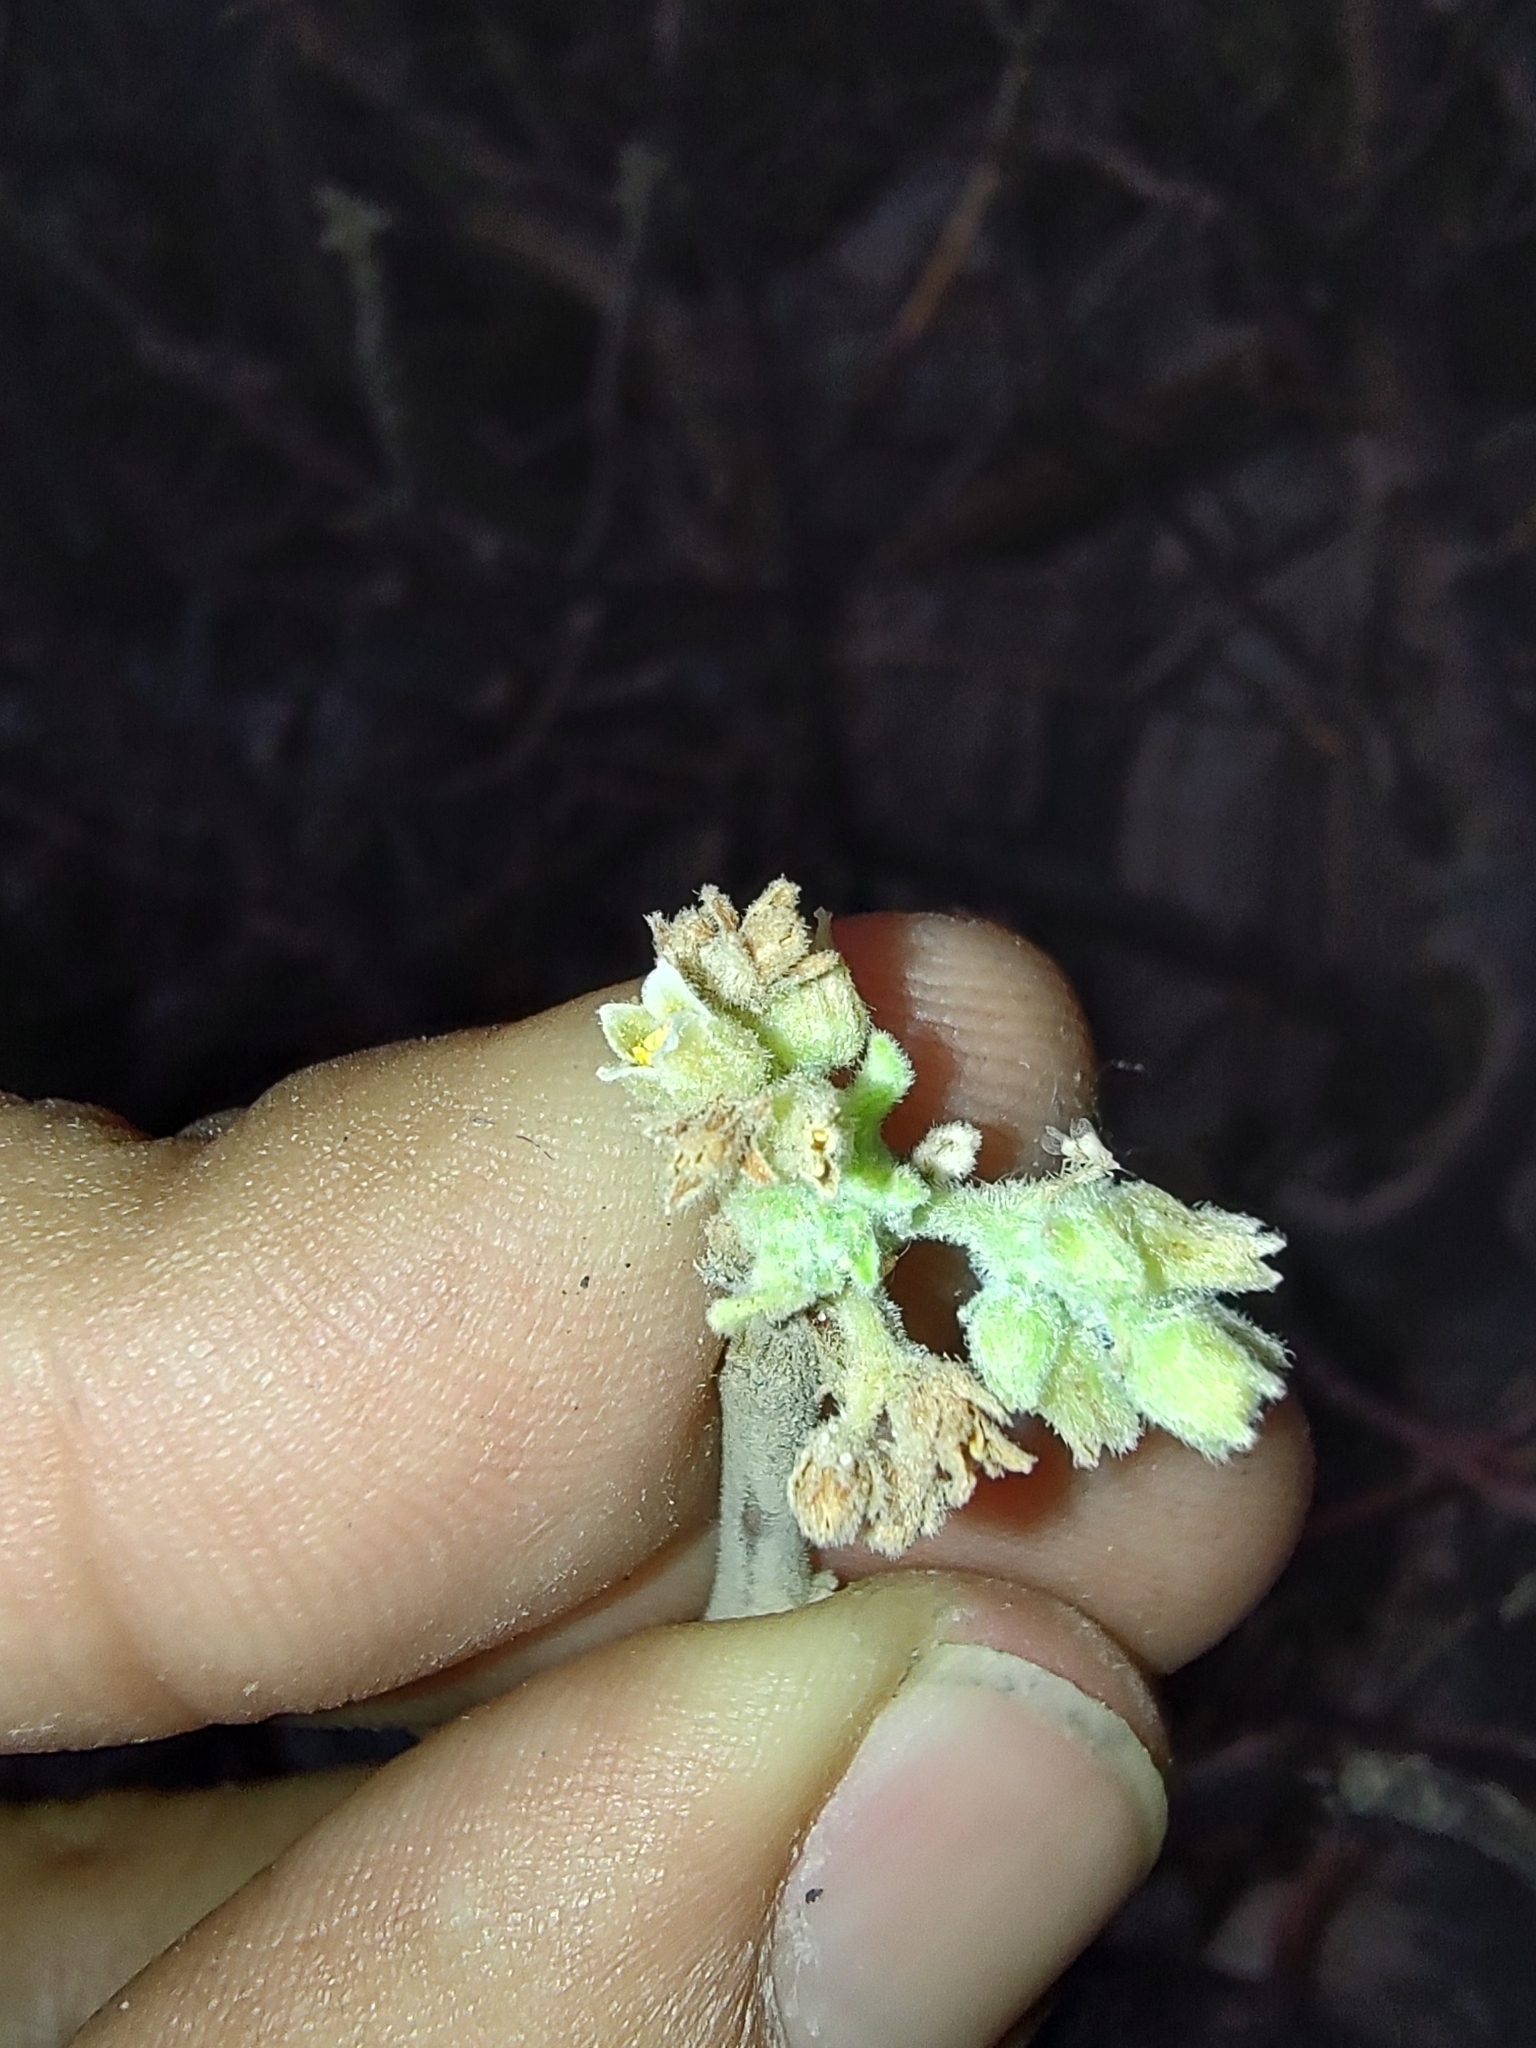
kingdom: Plantae
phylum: Tracheophyta
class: Magnoliopsida
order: Sapindales
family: Burseraceae
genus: Bursera
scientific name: Bursera hindsiana
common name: Red elephant tree
